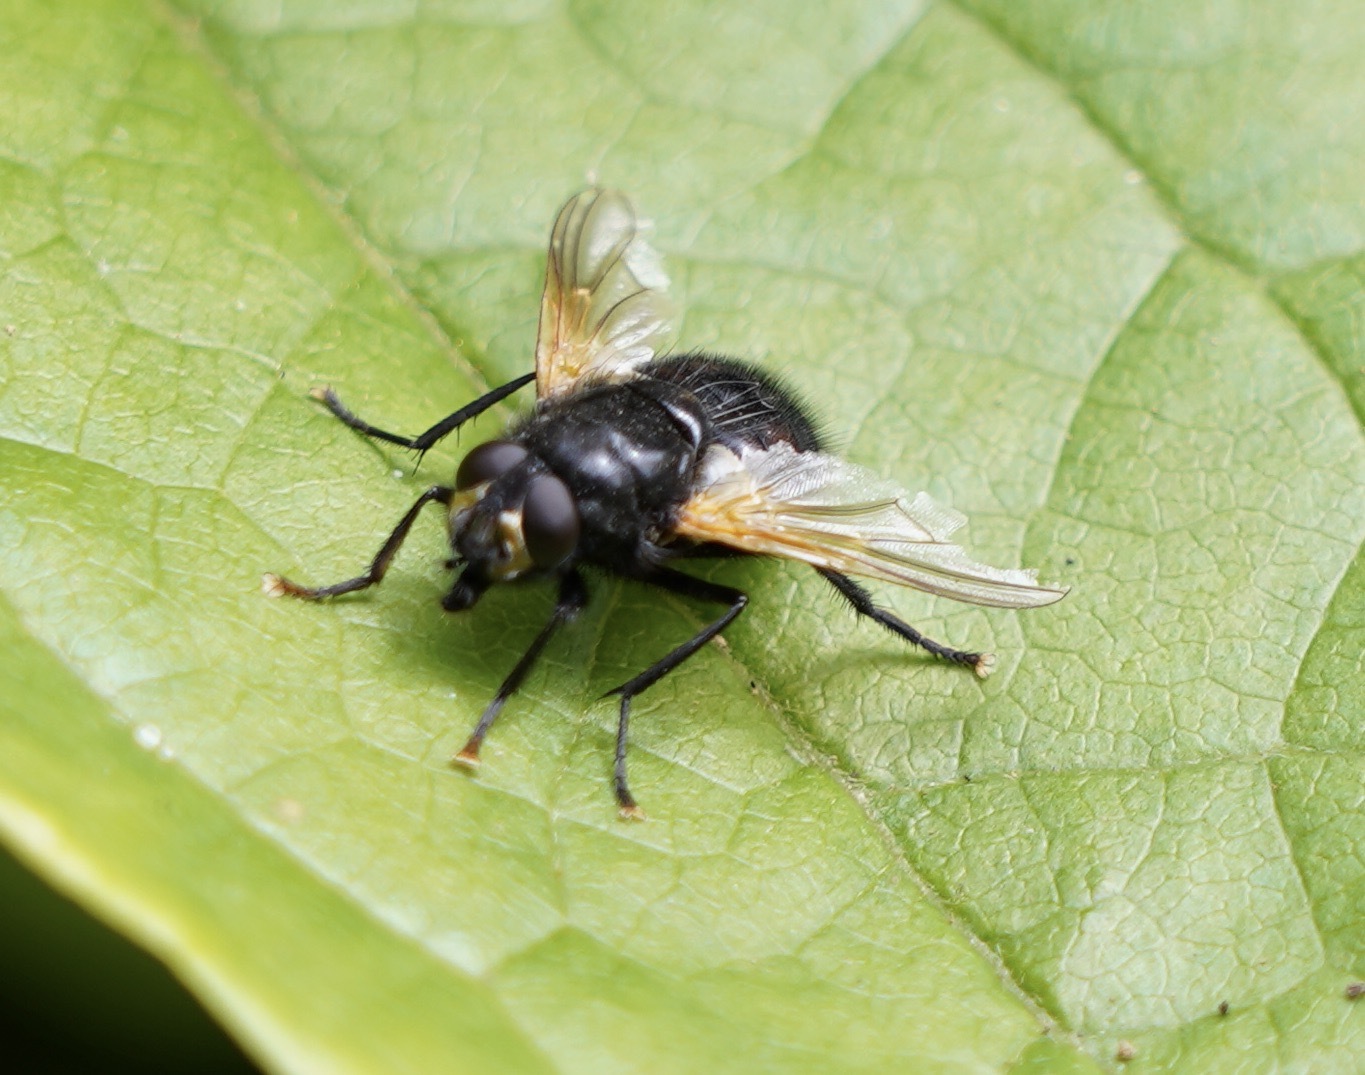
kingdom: Animalia
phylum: Arthropoda
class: Insecta
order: Diptera
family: Muscidae
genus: Mesembrina
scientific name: Mesembrina meridiana
